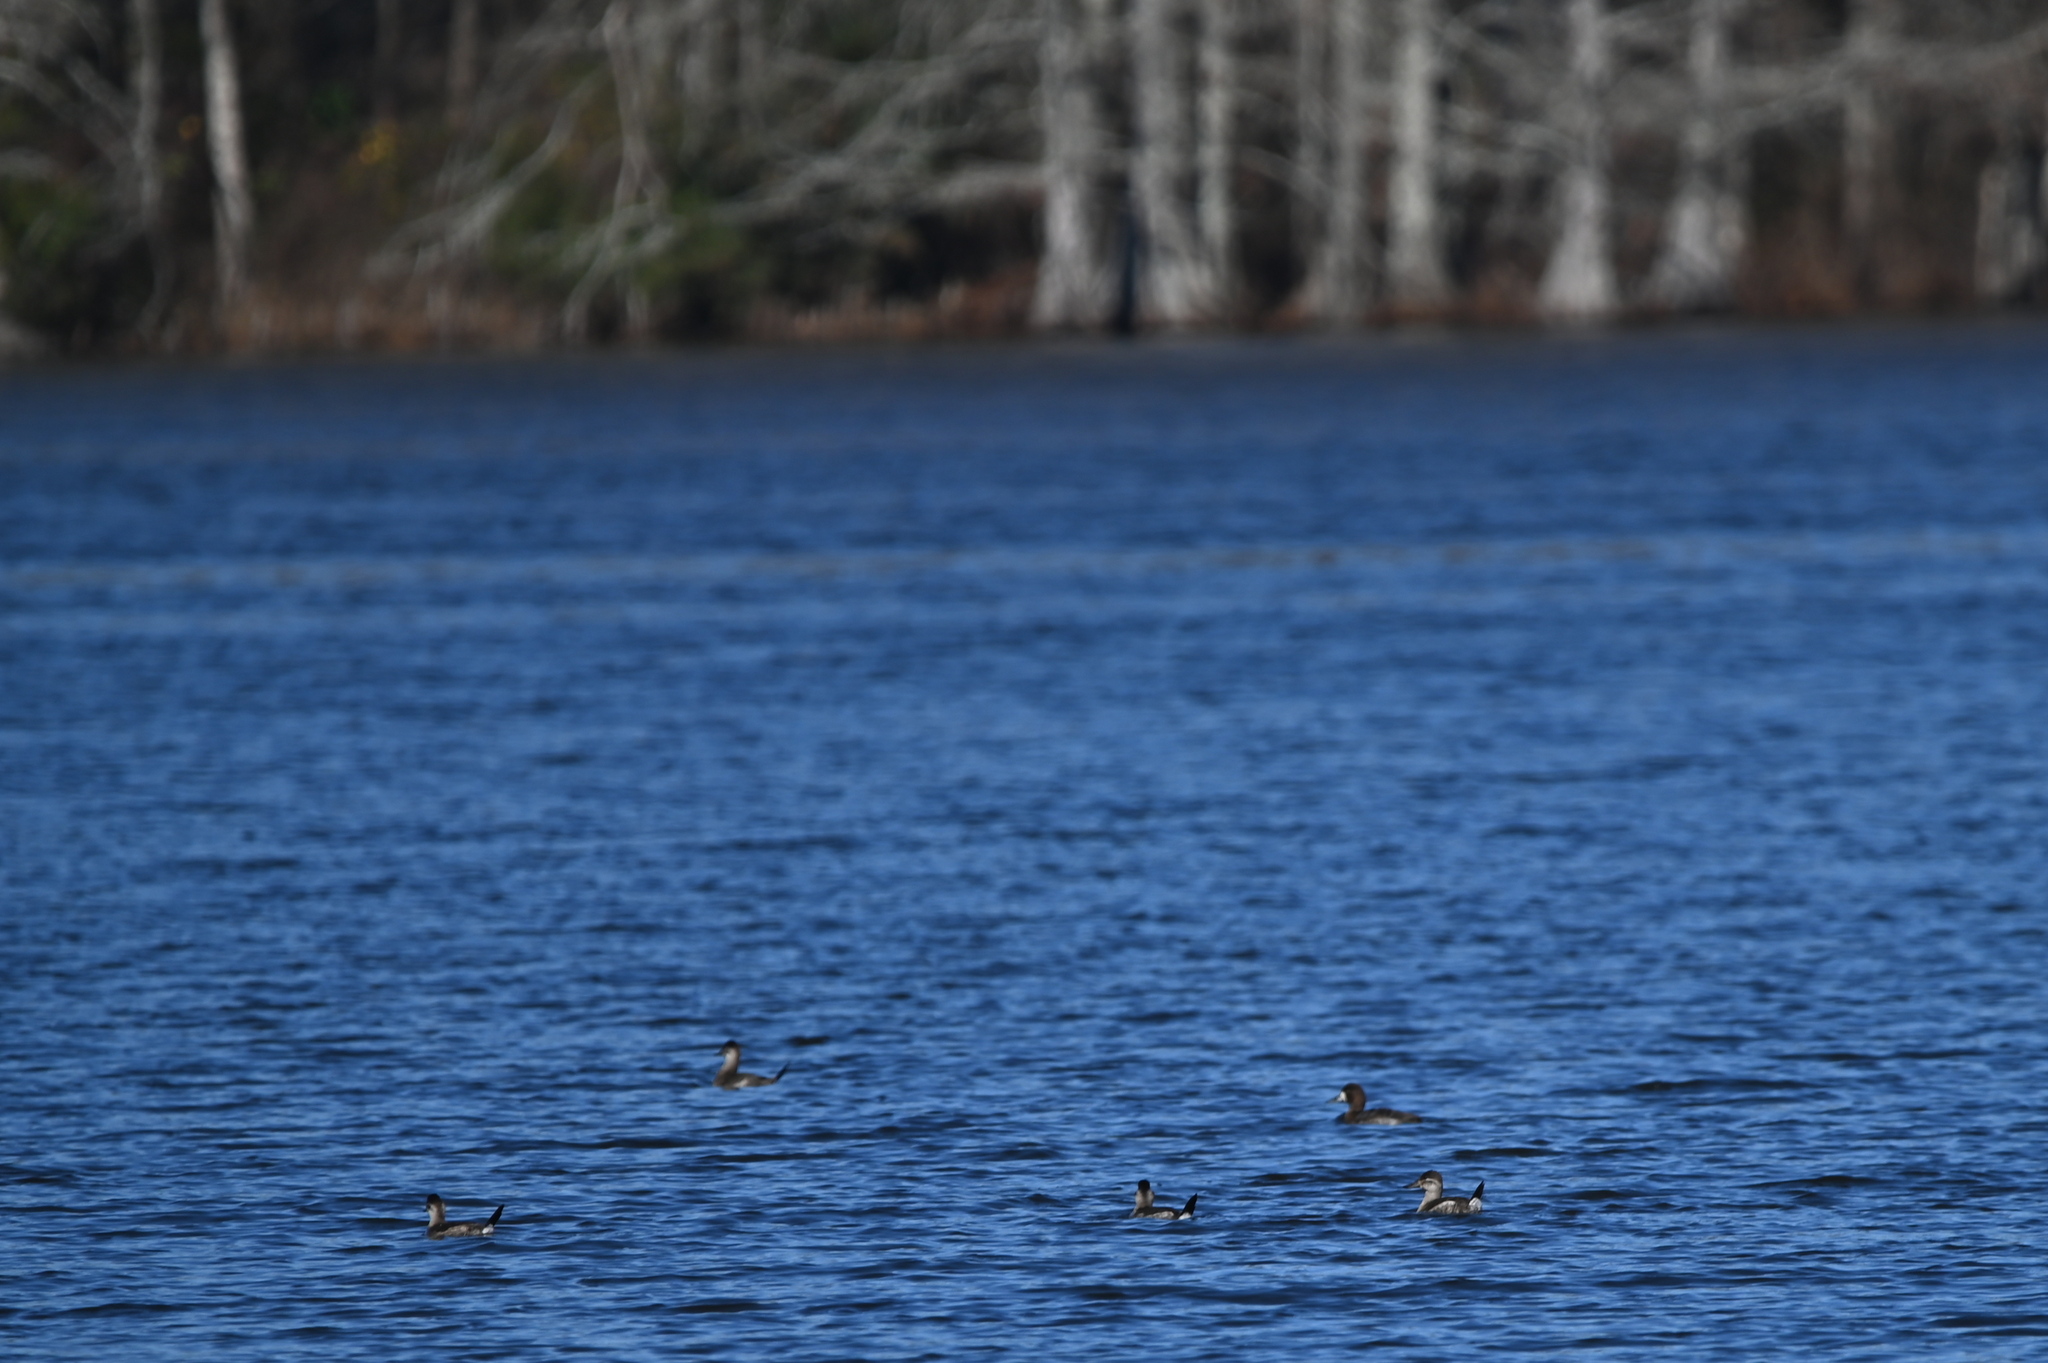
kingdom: Animalia
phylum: Chordata
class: Aves
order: Anseriformes
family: Anatidae
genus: Oxyura
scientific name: Oxyura jamaicensis
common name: Ruddy duck
